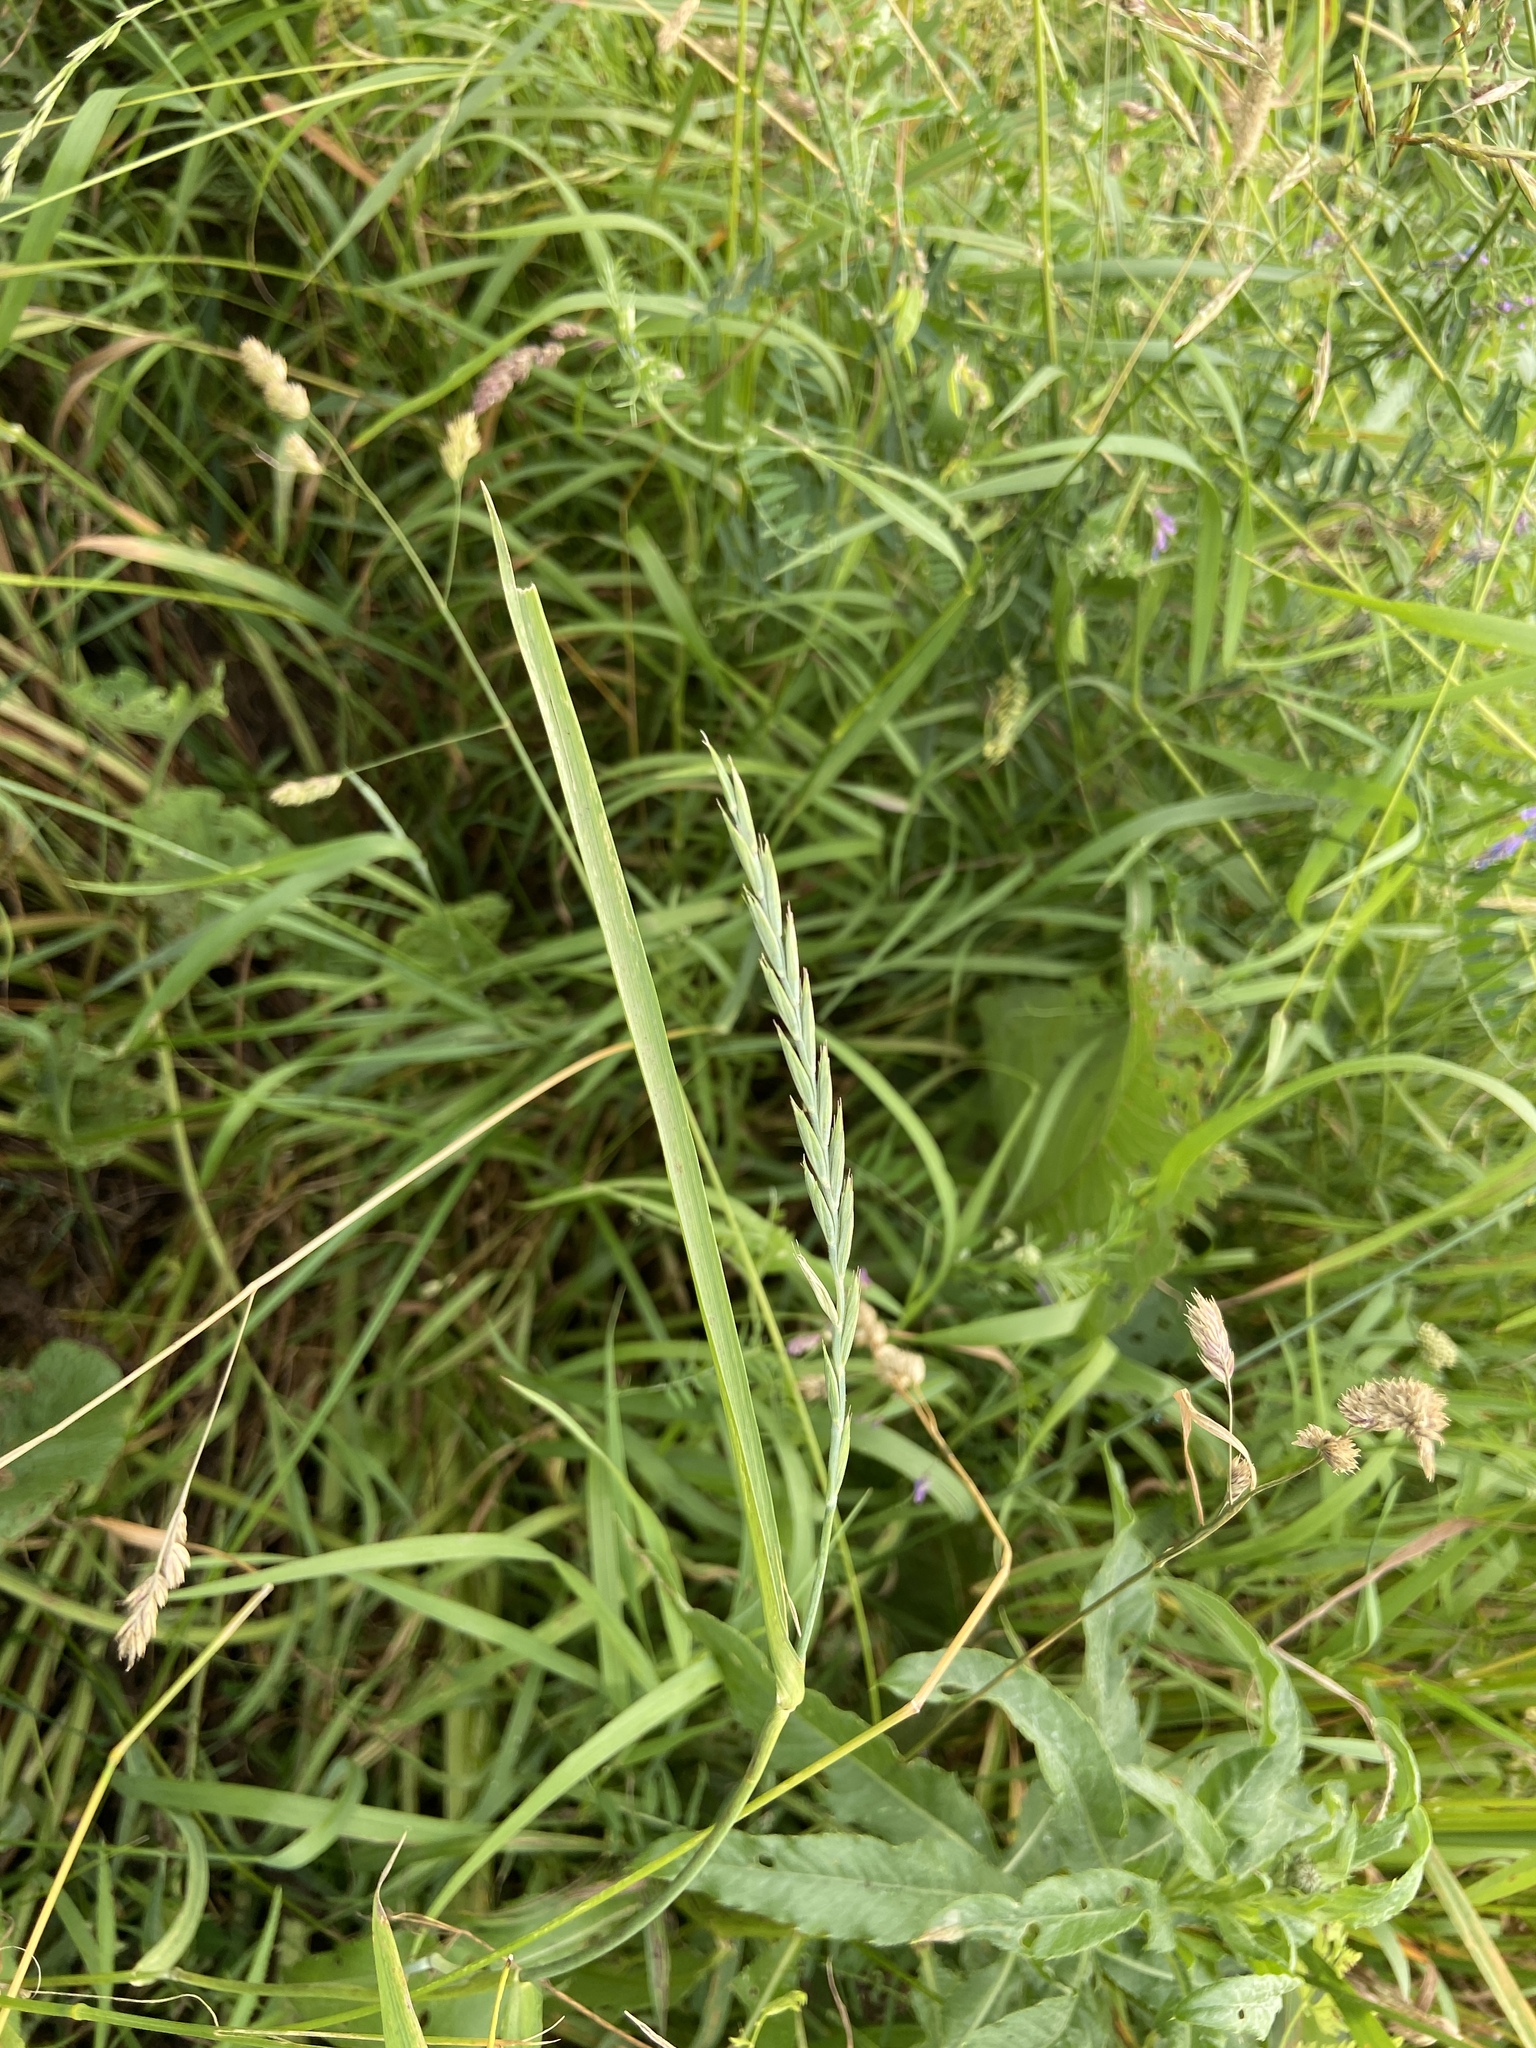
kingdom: Plantae
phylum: Tracheophyta
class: Liliopsida
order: Poales
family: Poaceae
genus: Elymus
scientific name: Elymus repens
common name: Quackgrass
